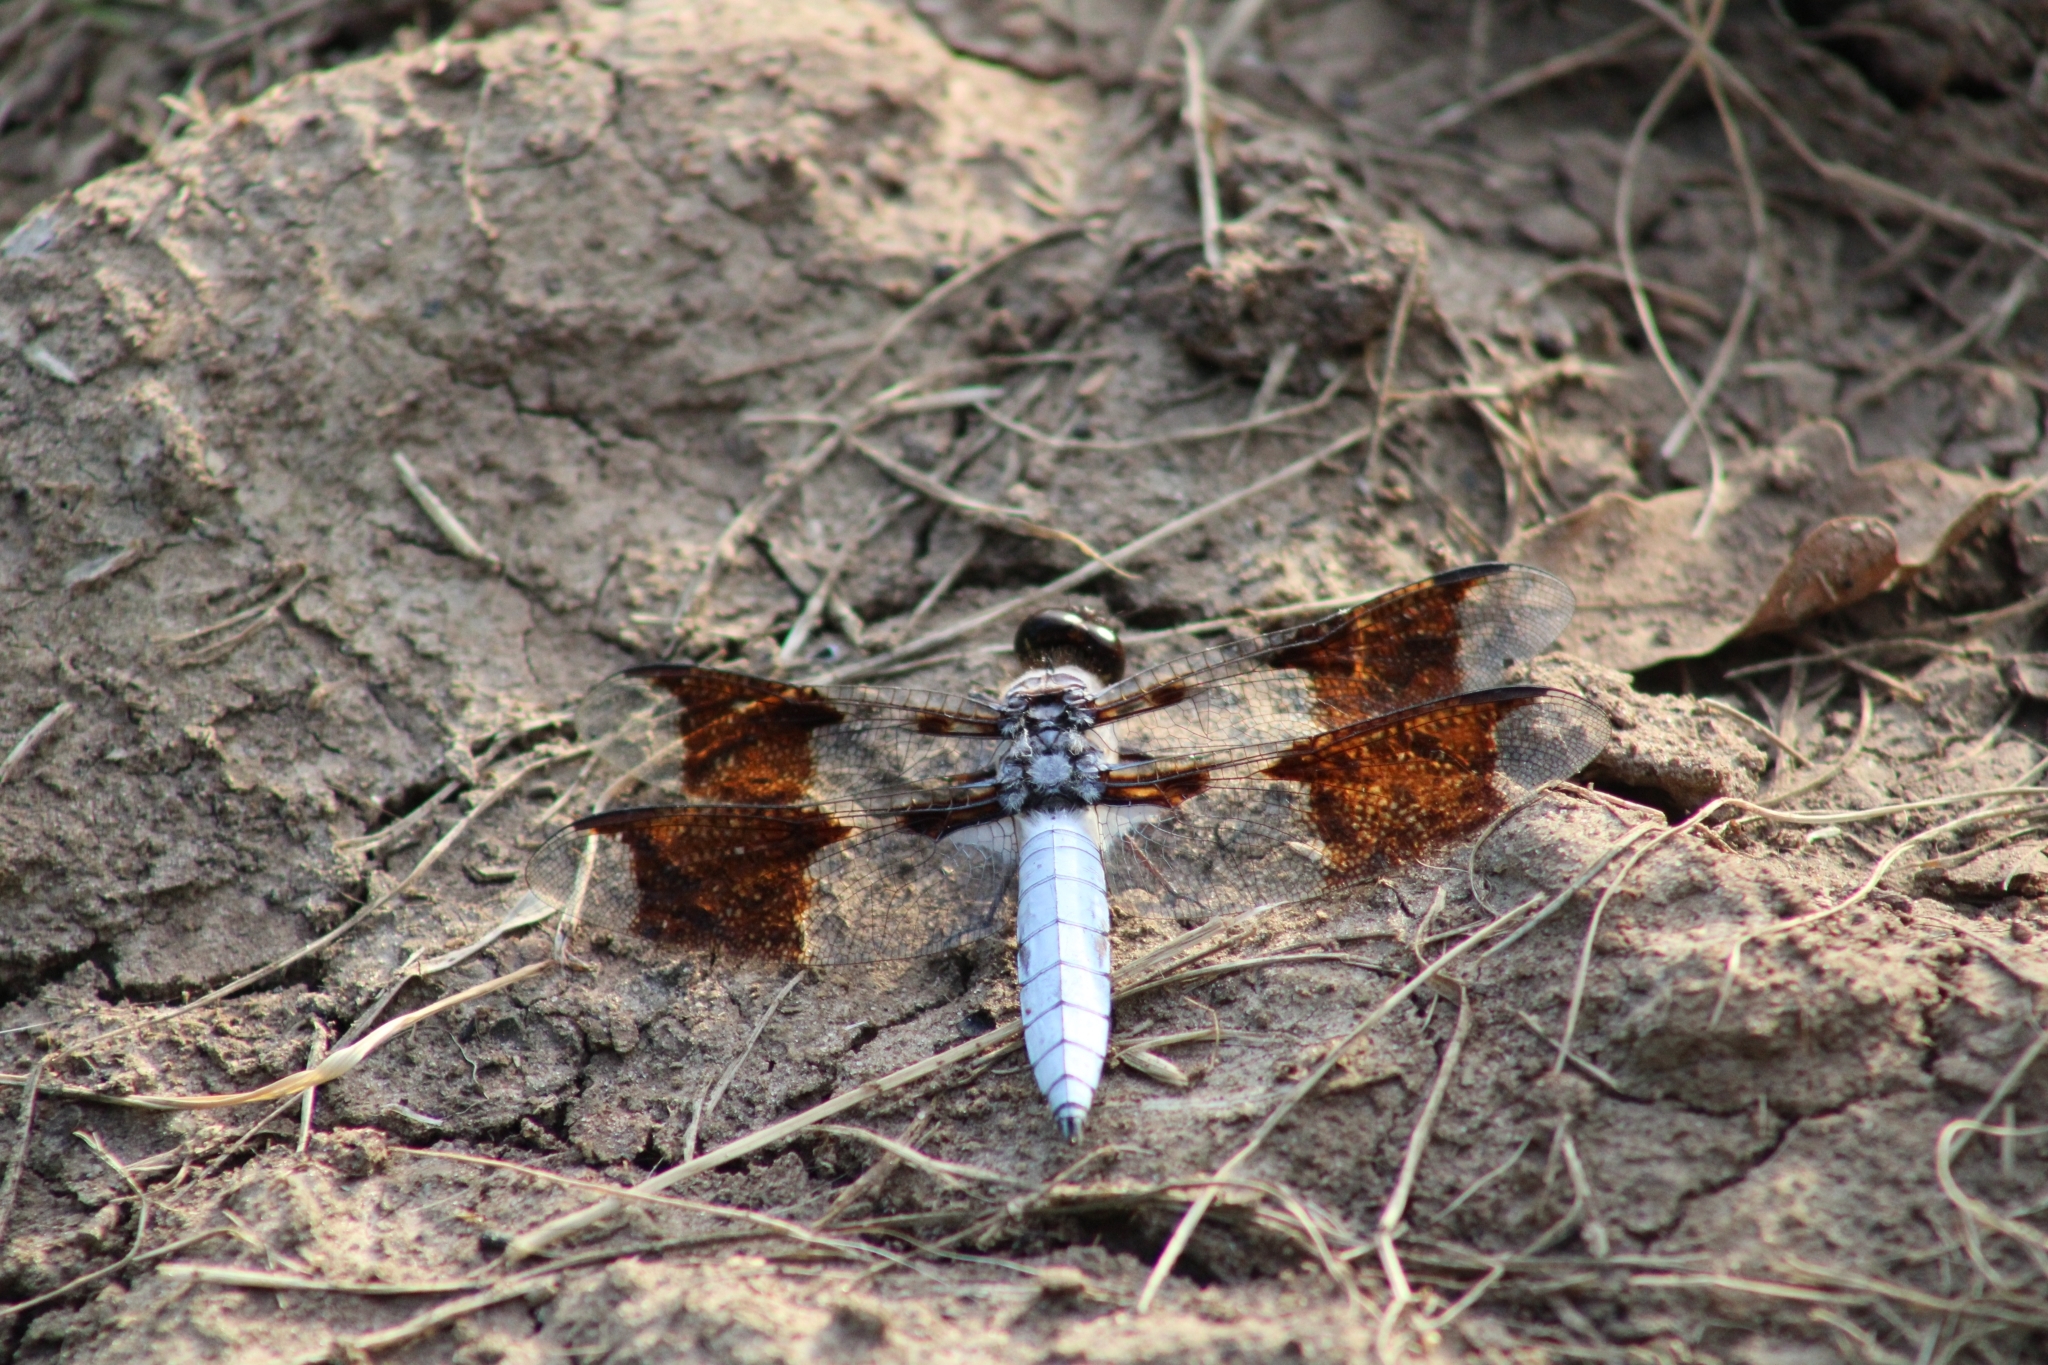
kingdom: Animalia
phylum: Arthropoda
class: Insecta
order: Odonata
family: Libellulidae
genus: Plathemis
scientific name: Plathemis lydia
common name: Common whitetail
